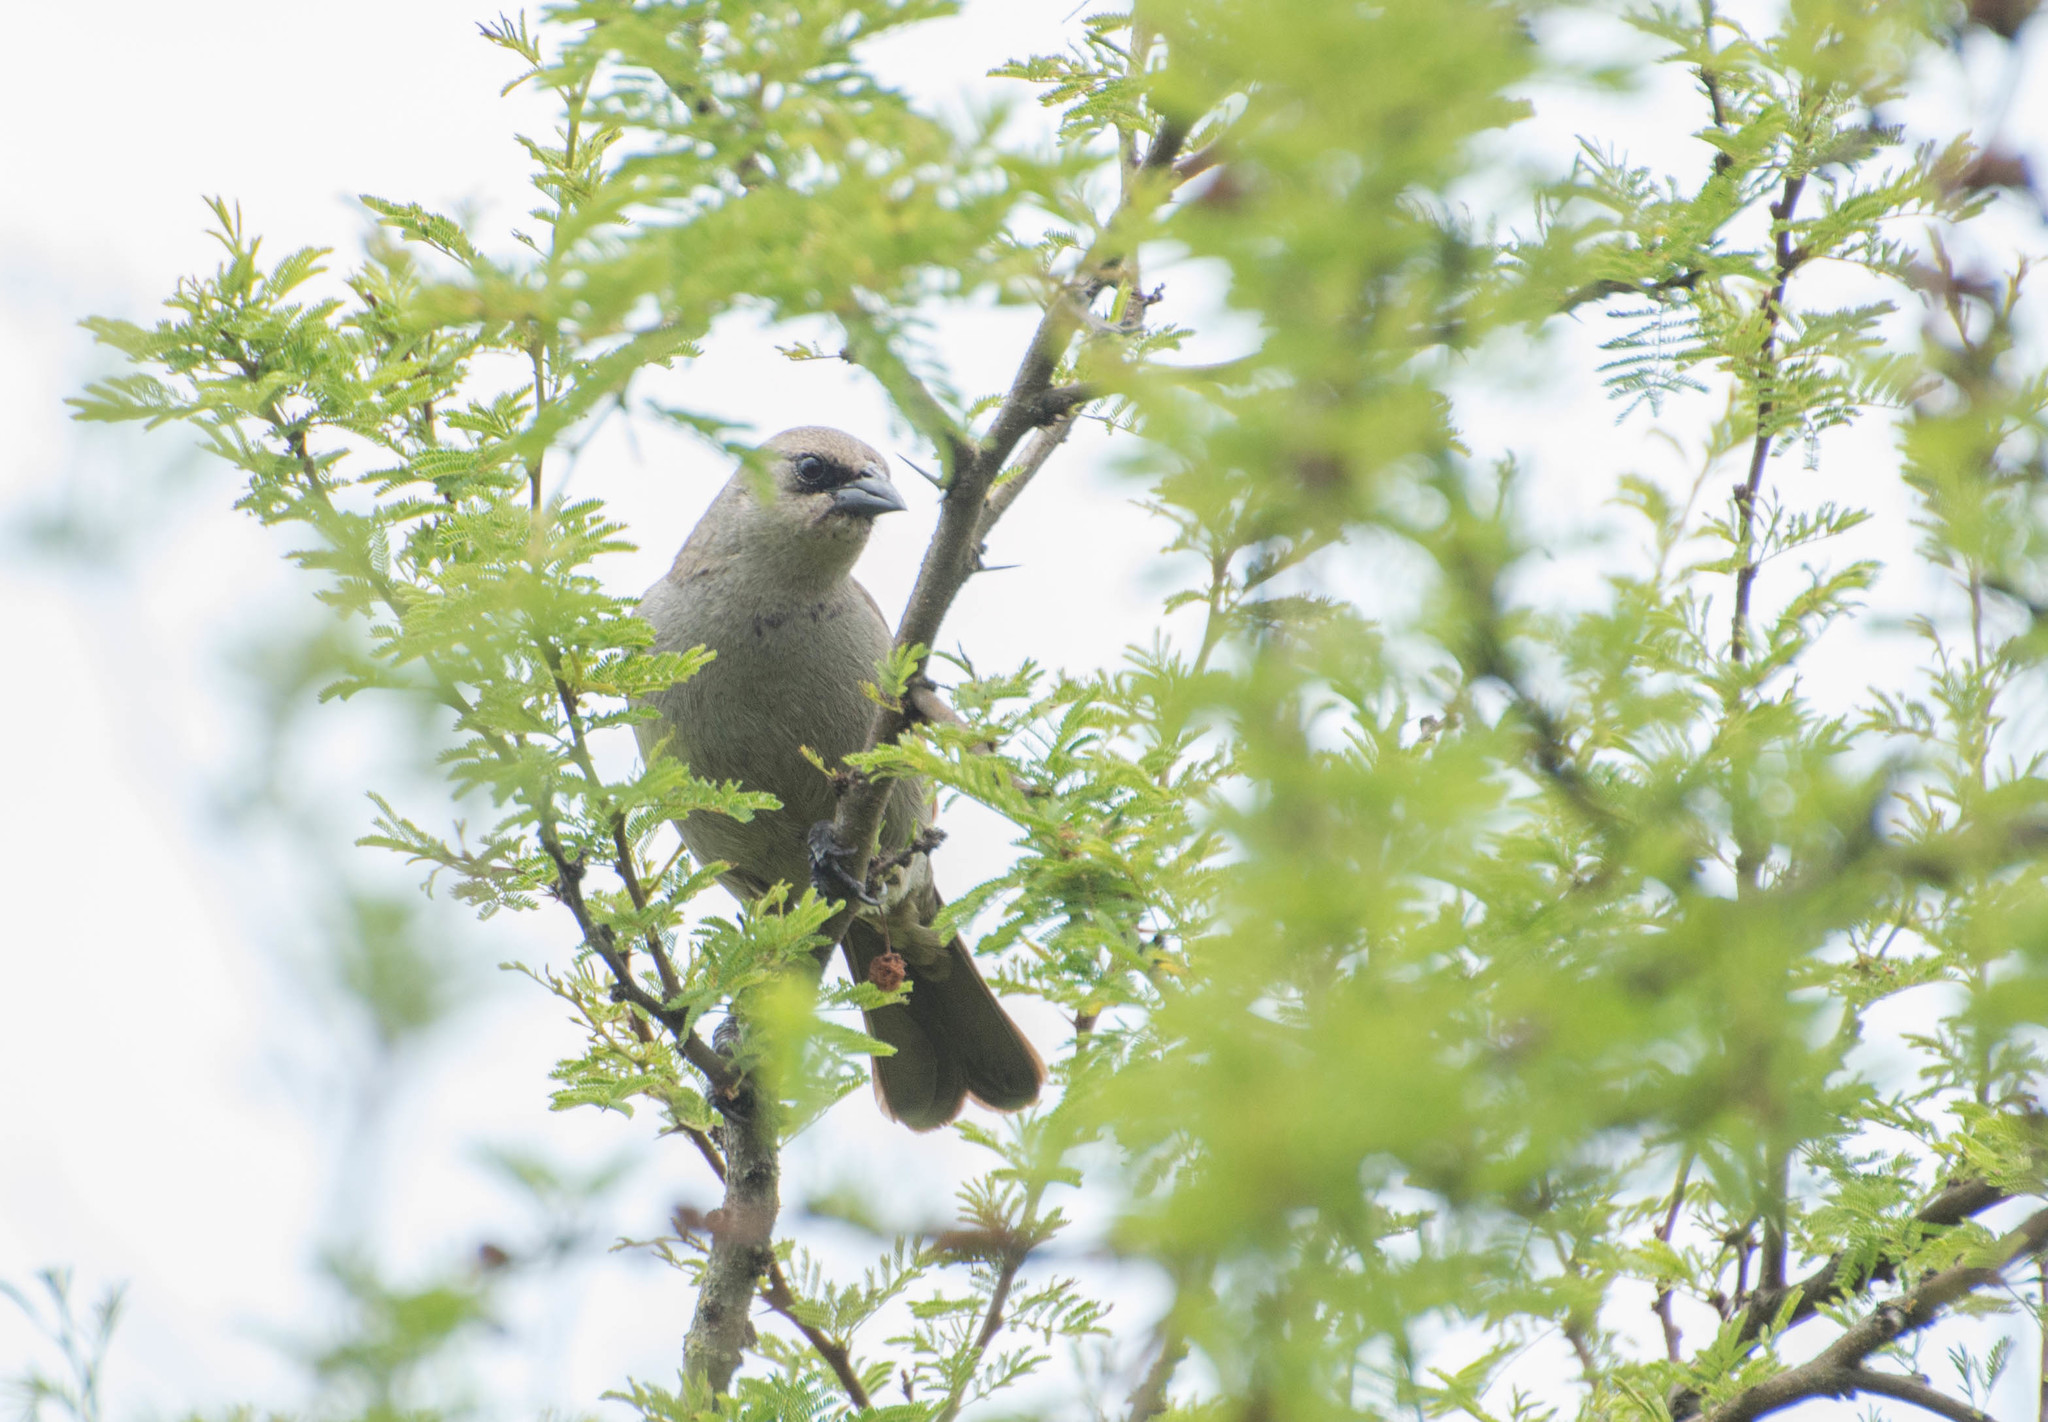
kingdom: Animalia
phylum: Chordata
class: Aves
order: Passeriformes
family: Icteridae
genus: Agelaioides
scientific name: Agelaioides badius
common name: Baywing
